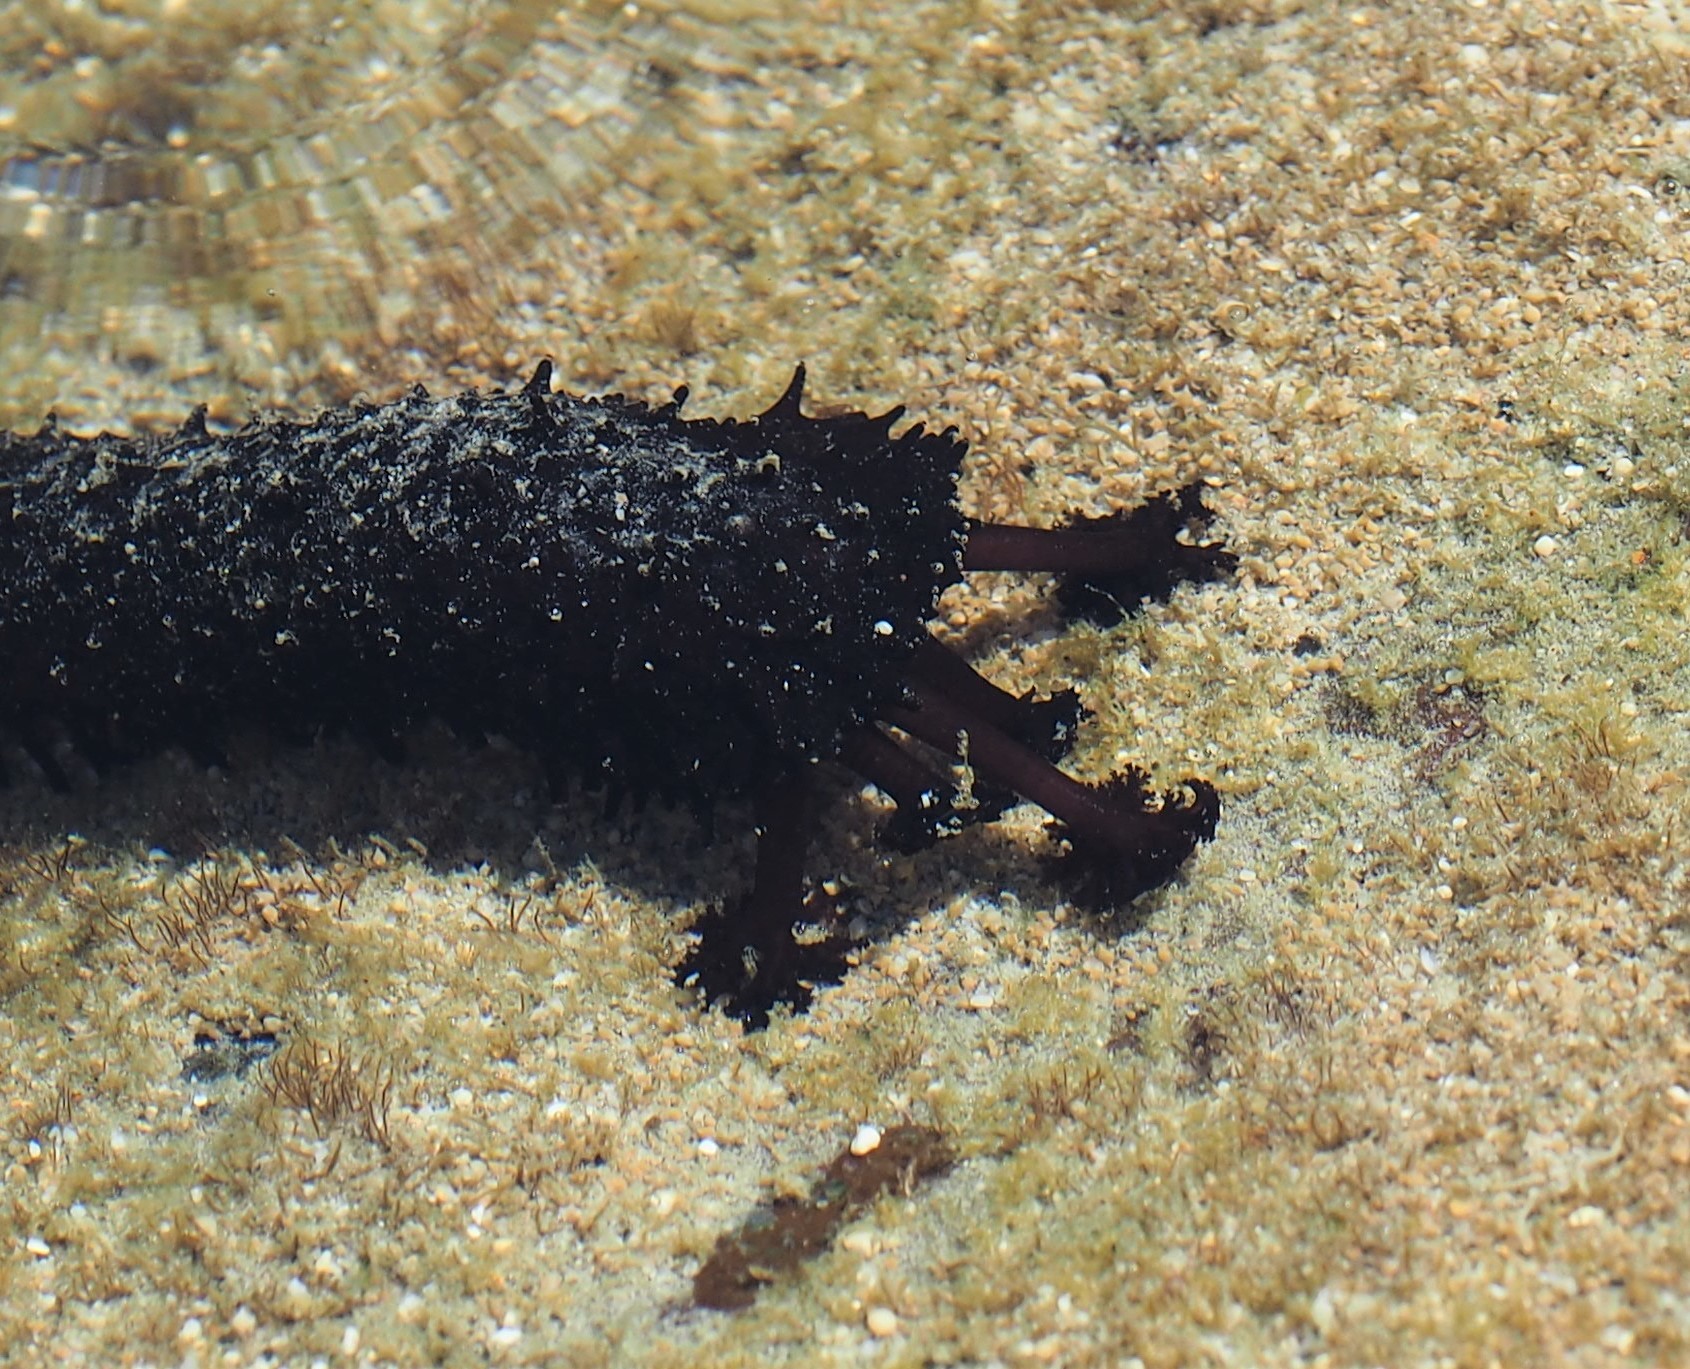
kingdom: Animalia
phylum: Echinodermata
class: Holothuroidea
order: Holothuriida
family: Holothuriidae
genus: Holothuria
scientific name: Holothuria leucospilota
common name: White thread fish
